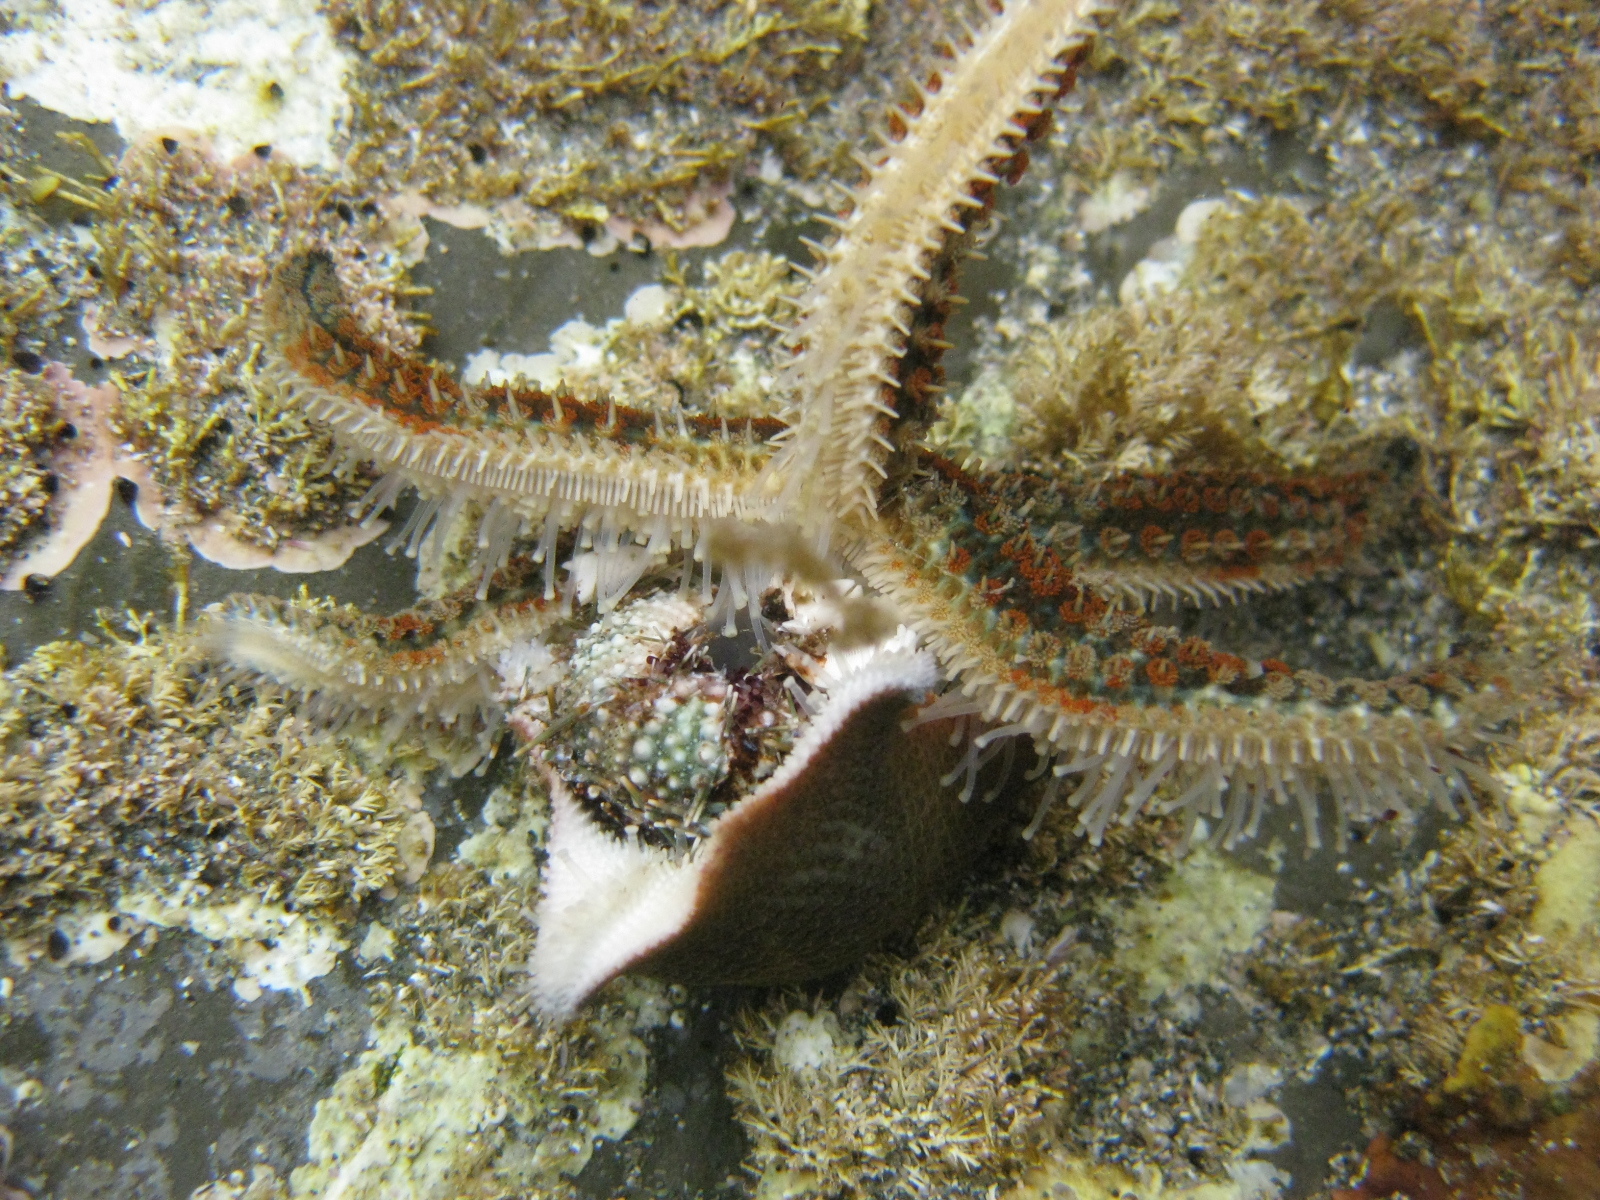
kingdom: Animalia
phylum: Echinodermata
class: Asteroidea
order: Forcipulatida
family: Asteriidae
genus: Coscinasterias
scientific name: Coscinasterias muricata
